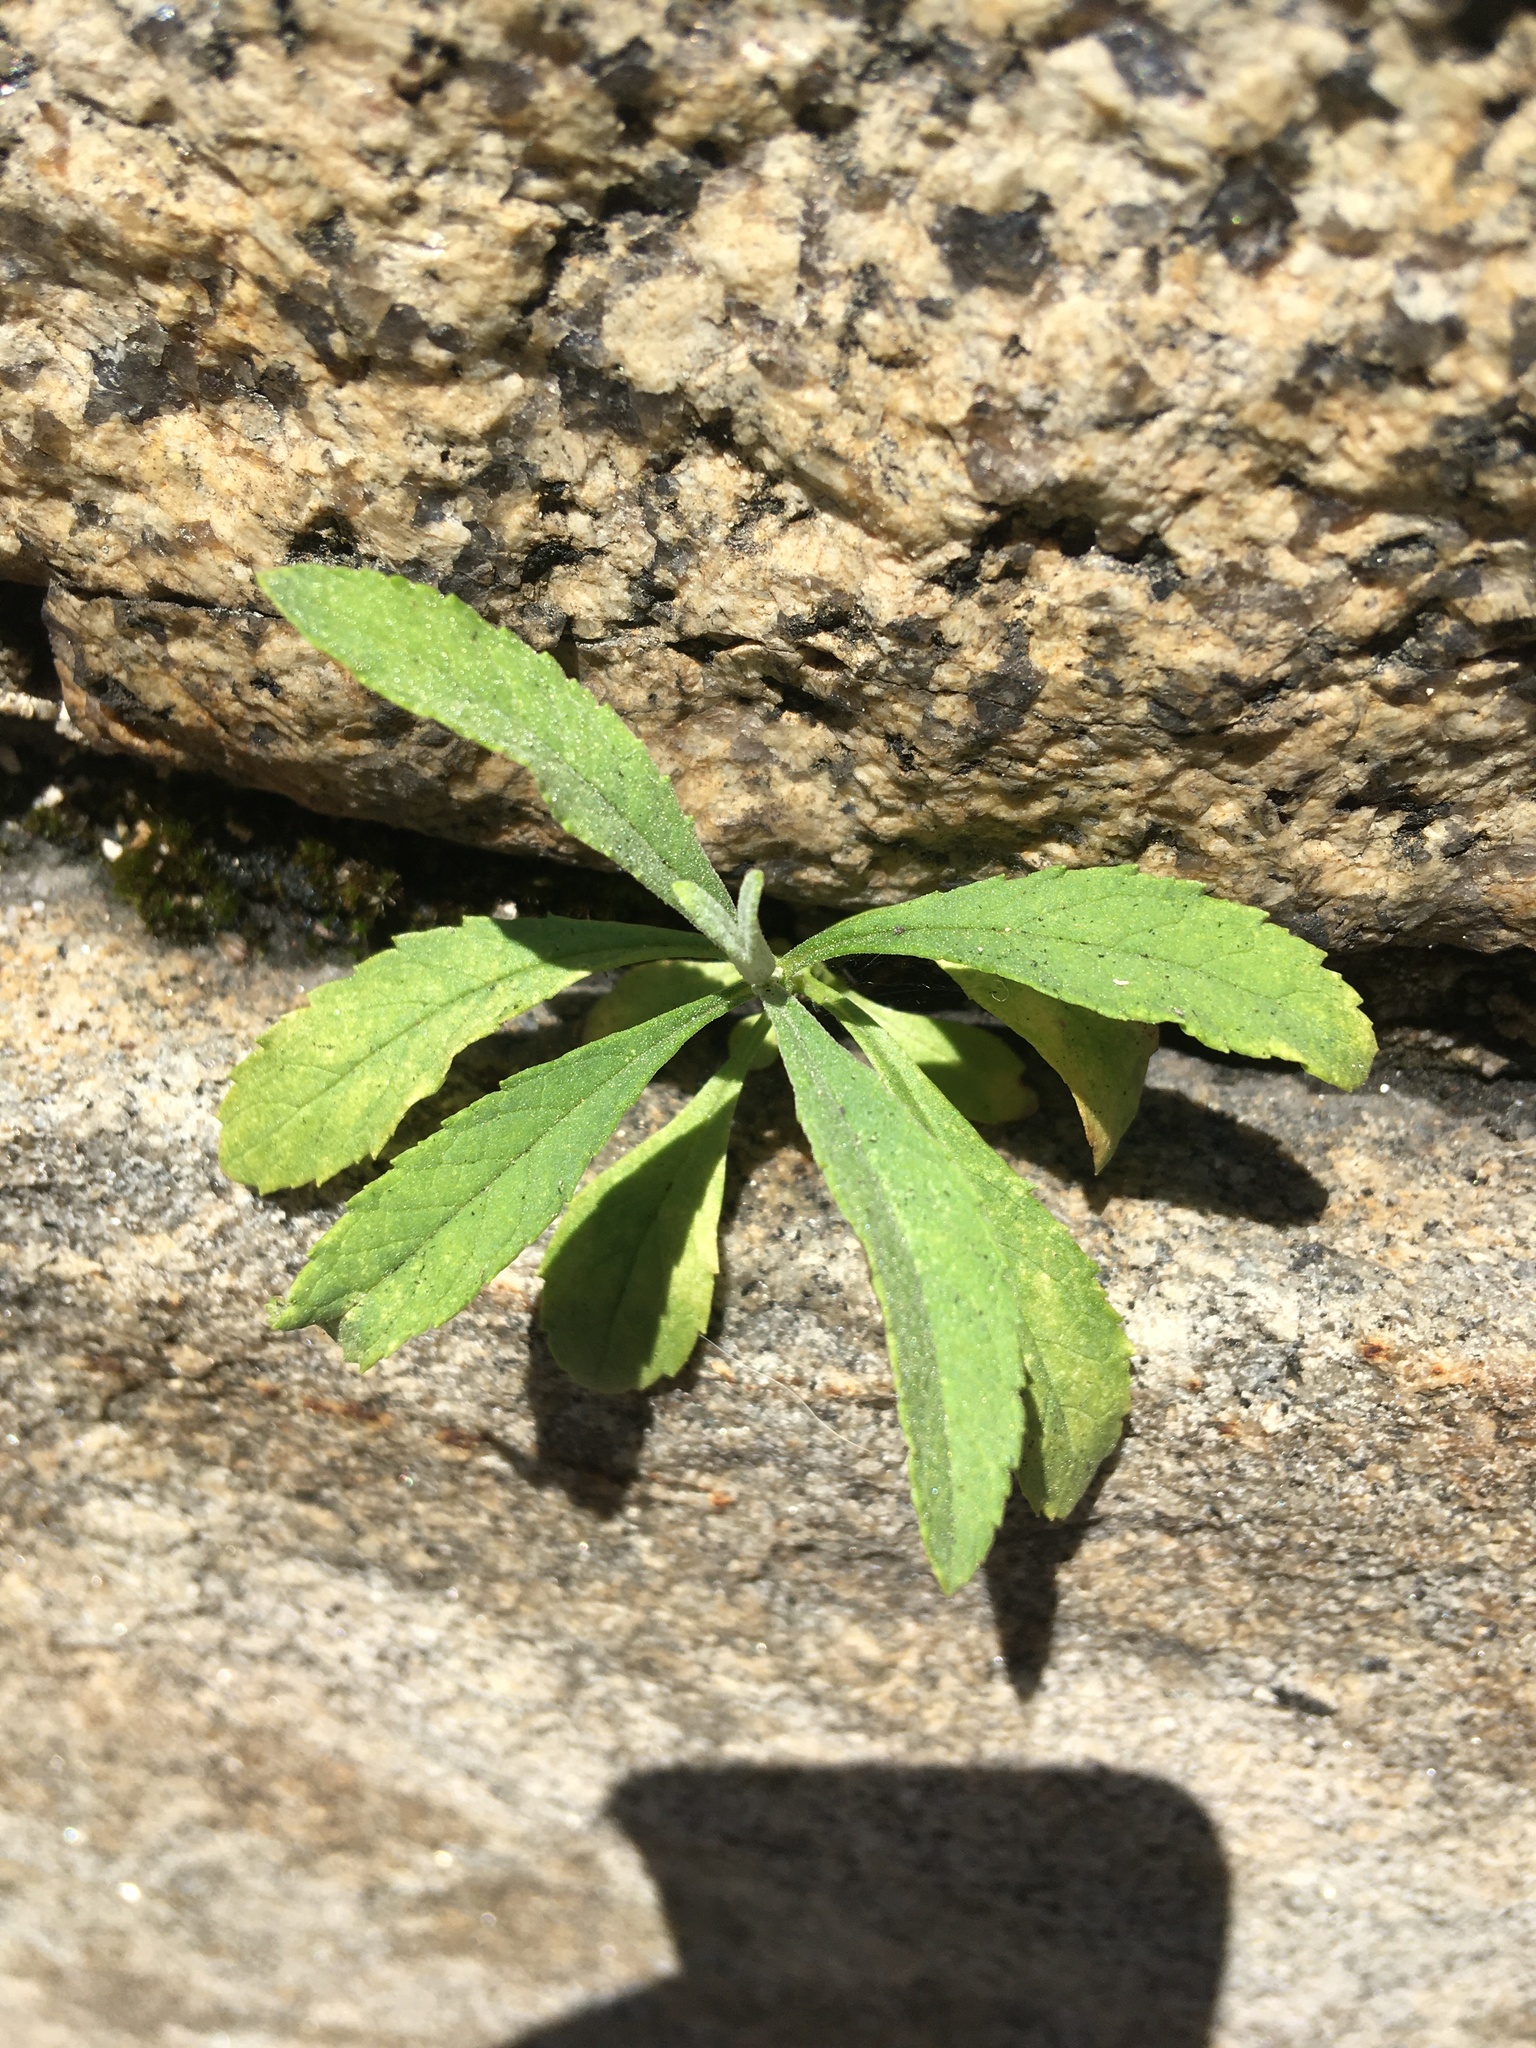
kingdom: Plantae
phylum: Tracheophyta
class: Magnoliopsida
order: Lamiales
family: Scrophulariaceae
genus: Buddleja
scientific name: Buddleja davidii
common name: Butterfly-bush
